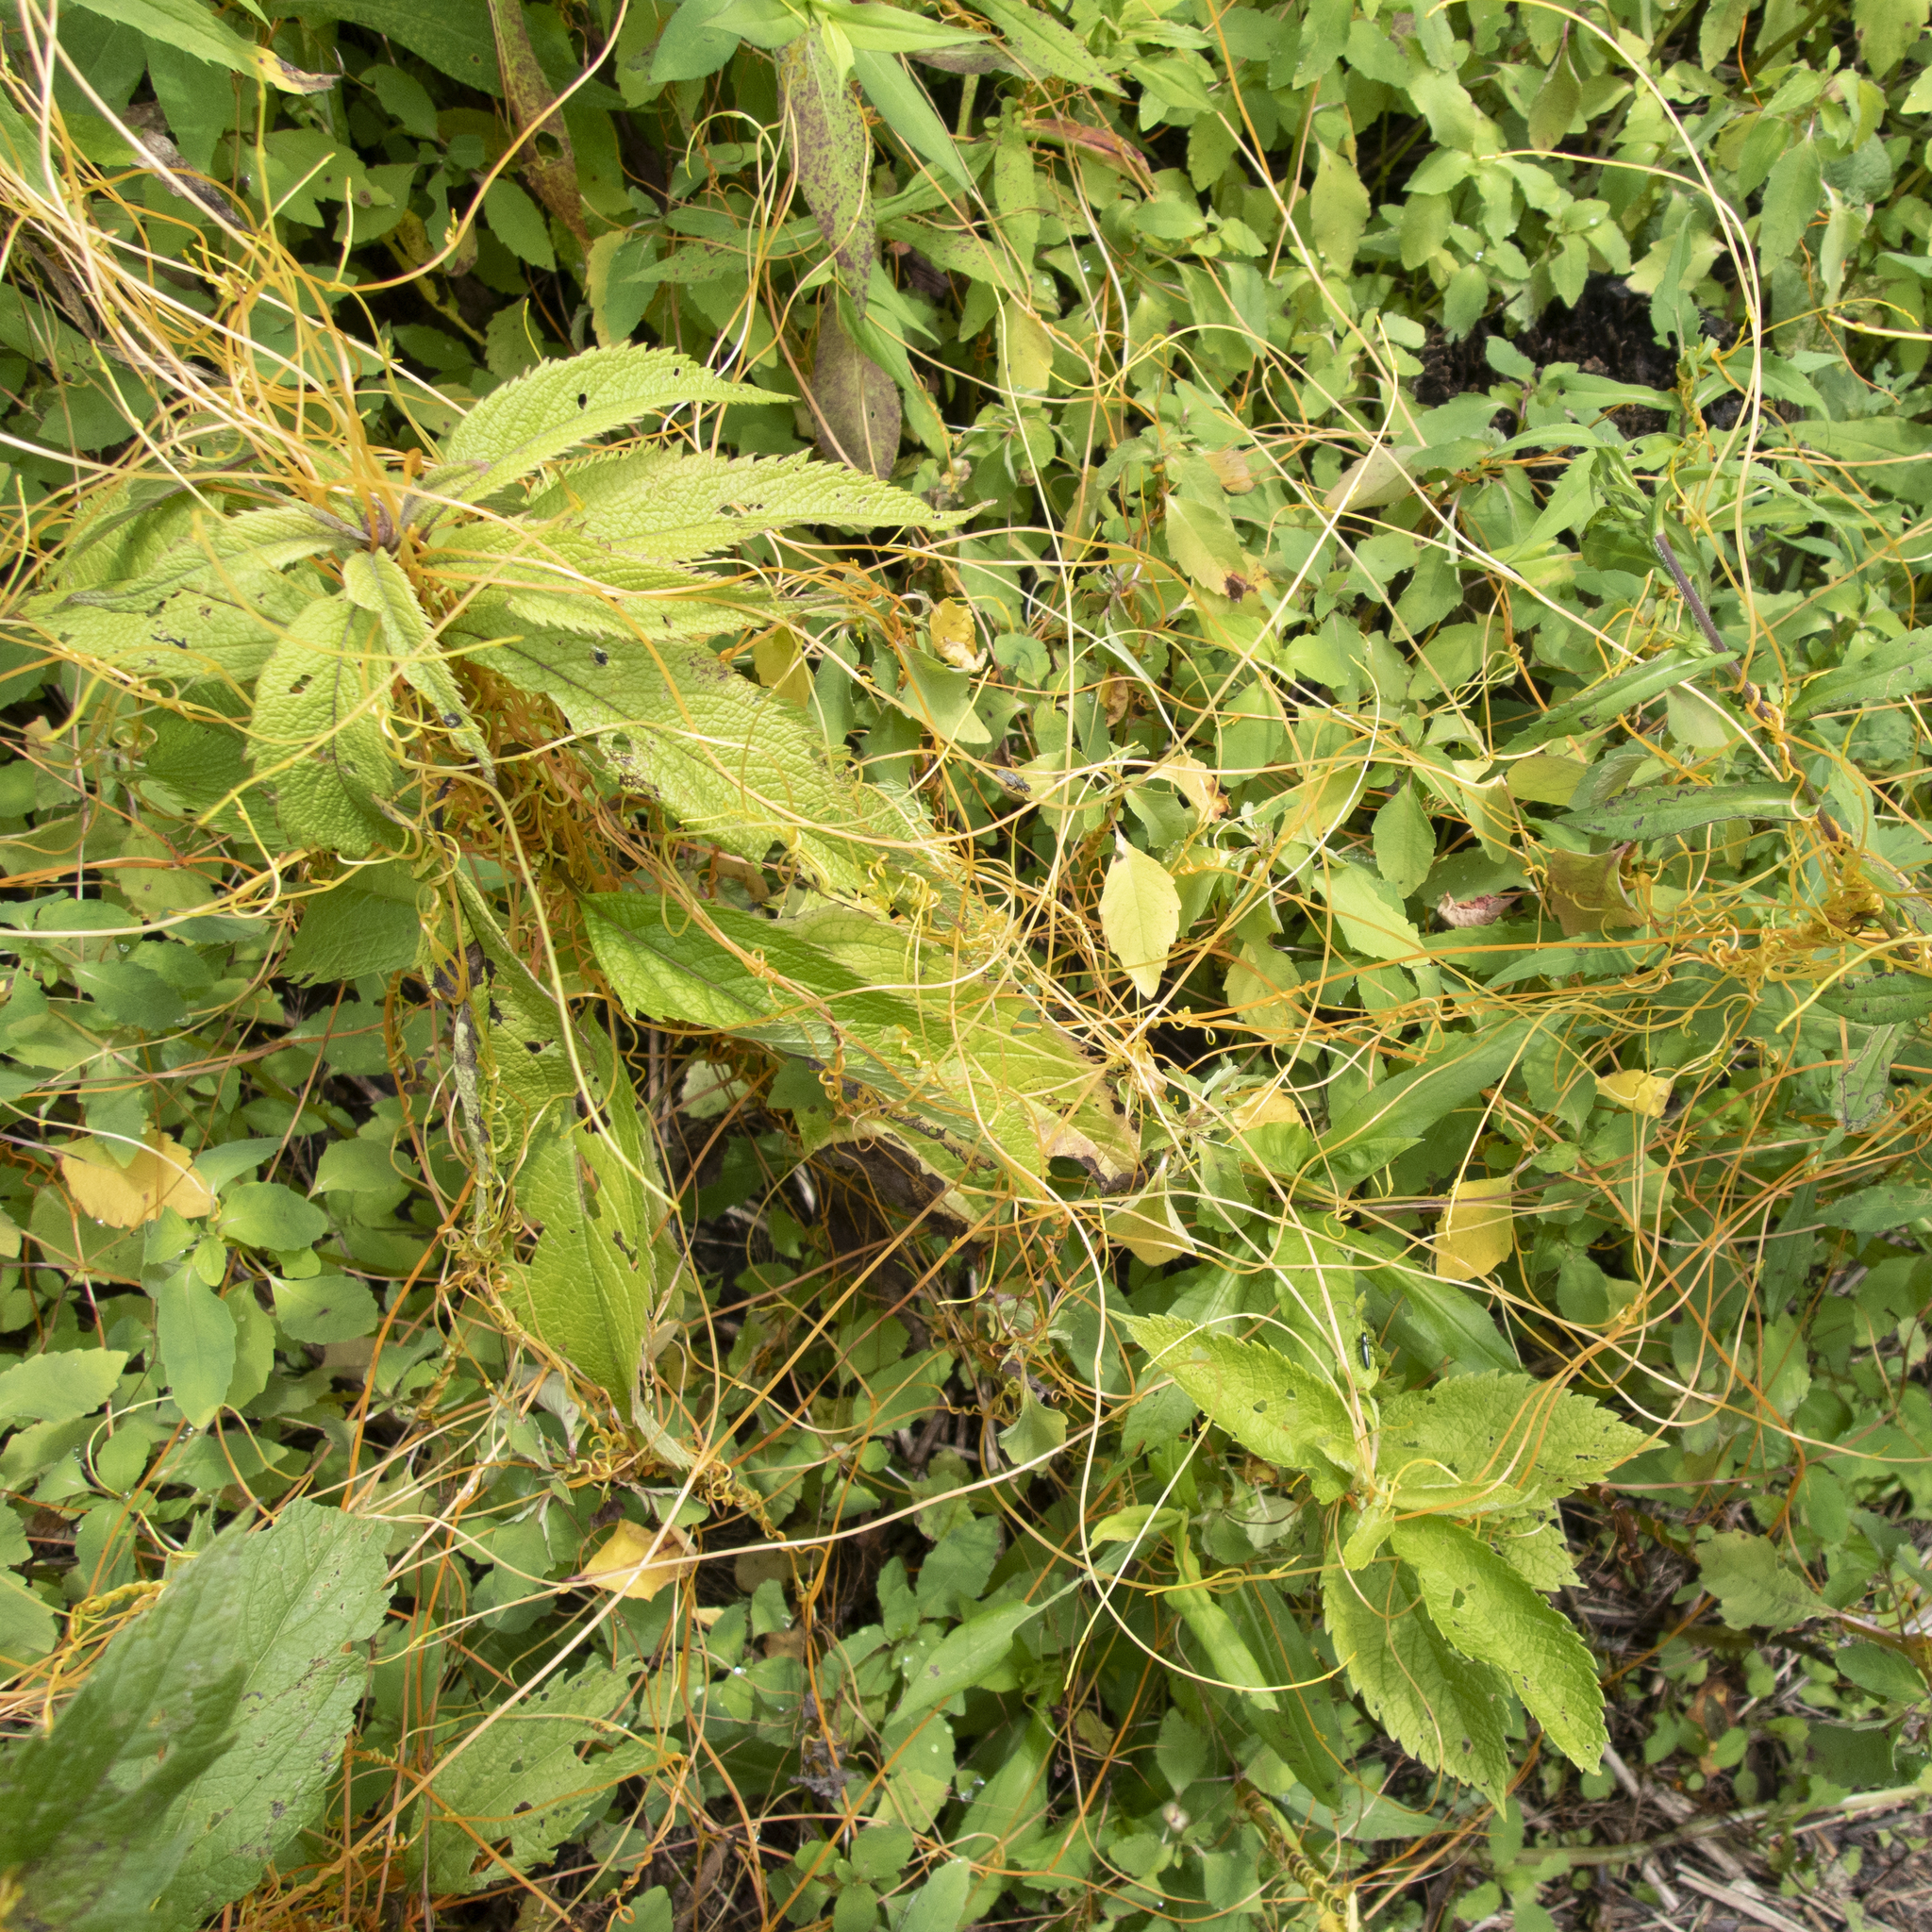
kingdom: Plantae
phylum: Tracheophyta
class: Magnoliopsida
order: Solanales
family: Convolvulaceae
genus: Cuscuta
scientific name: Cuscuta gronovii
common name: Common dodder
